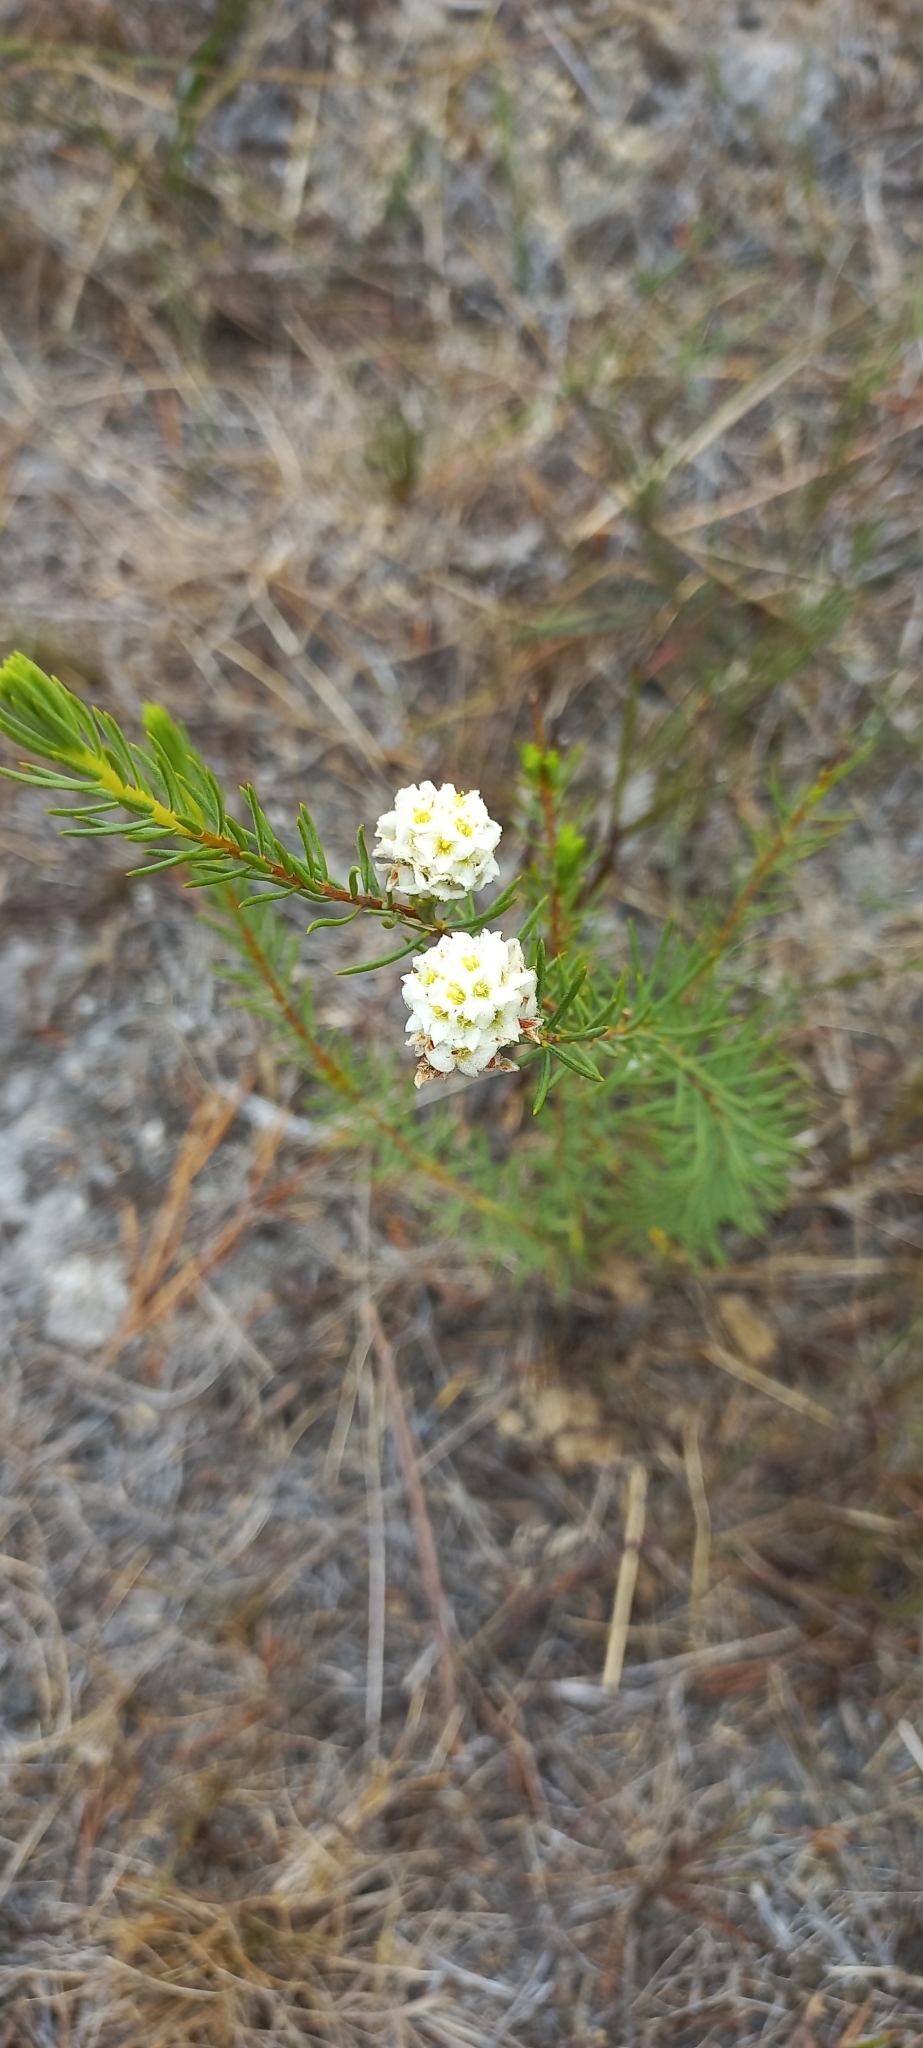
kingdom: Plantae
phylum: Tracheophyta
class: Magnoliopsida
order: Malvales
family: Thymelaeaceae
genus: Lachnaea
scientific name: Lachnaea densiflora
